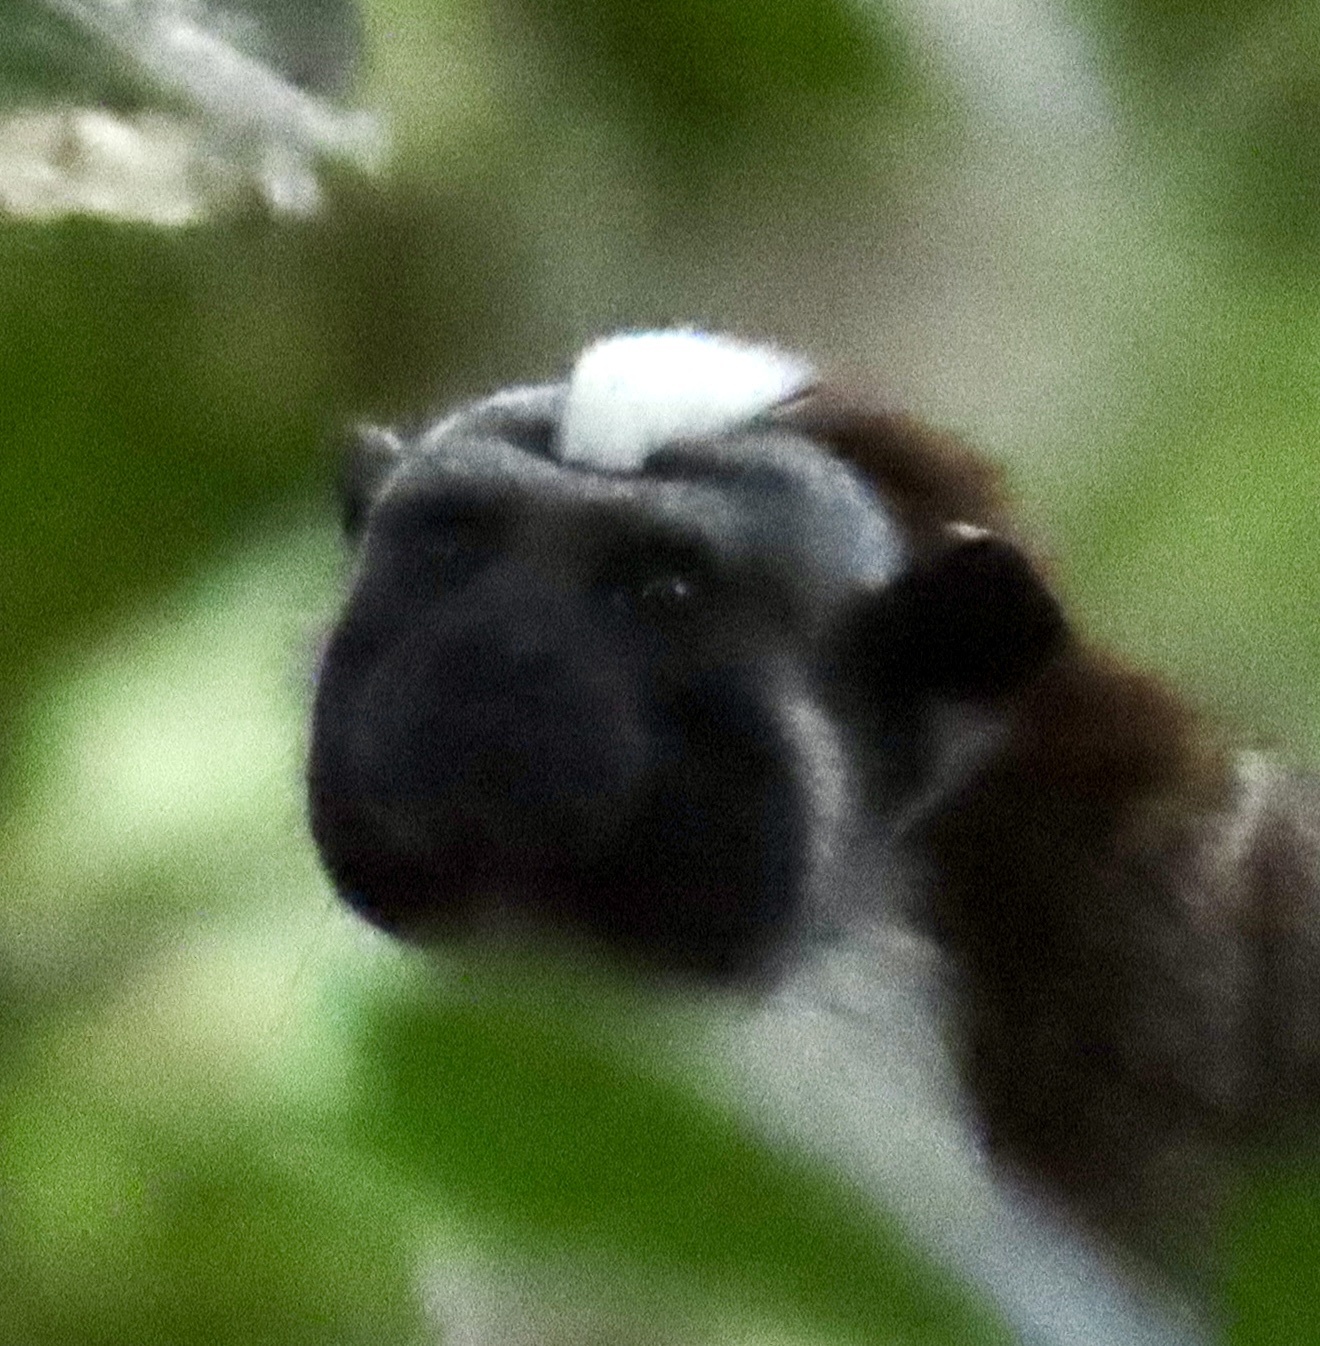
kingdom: Animalia
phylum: Chordata
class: Mammalia
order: Primates
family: Callitrichidae
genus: Saguinus
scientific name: Saguinus geoffroyi
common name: Geoffroy s tamarin
